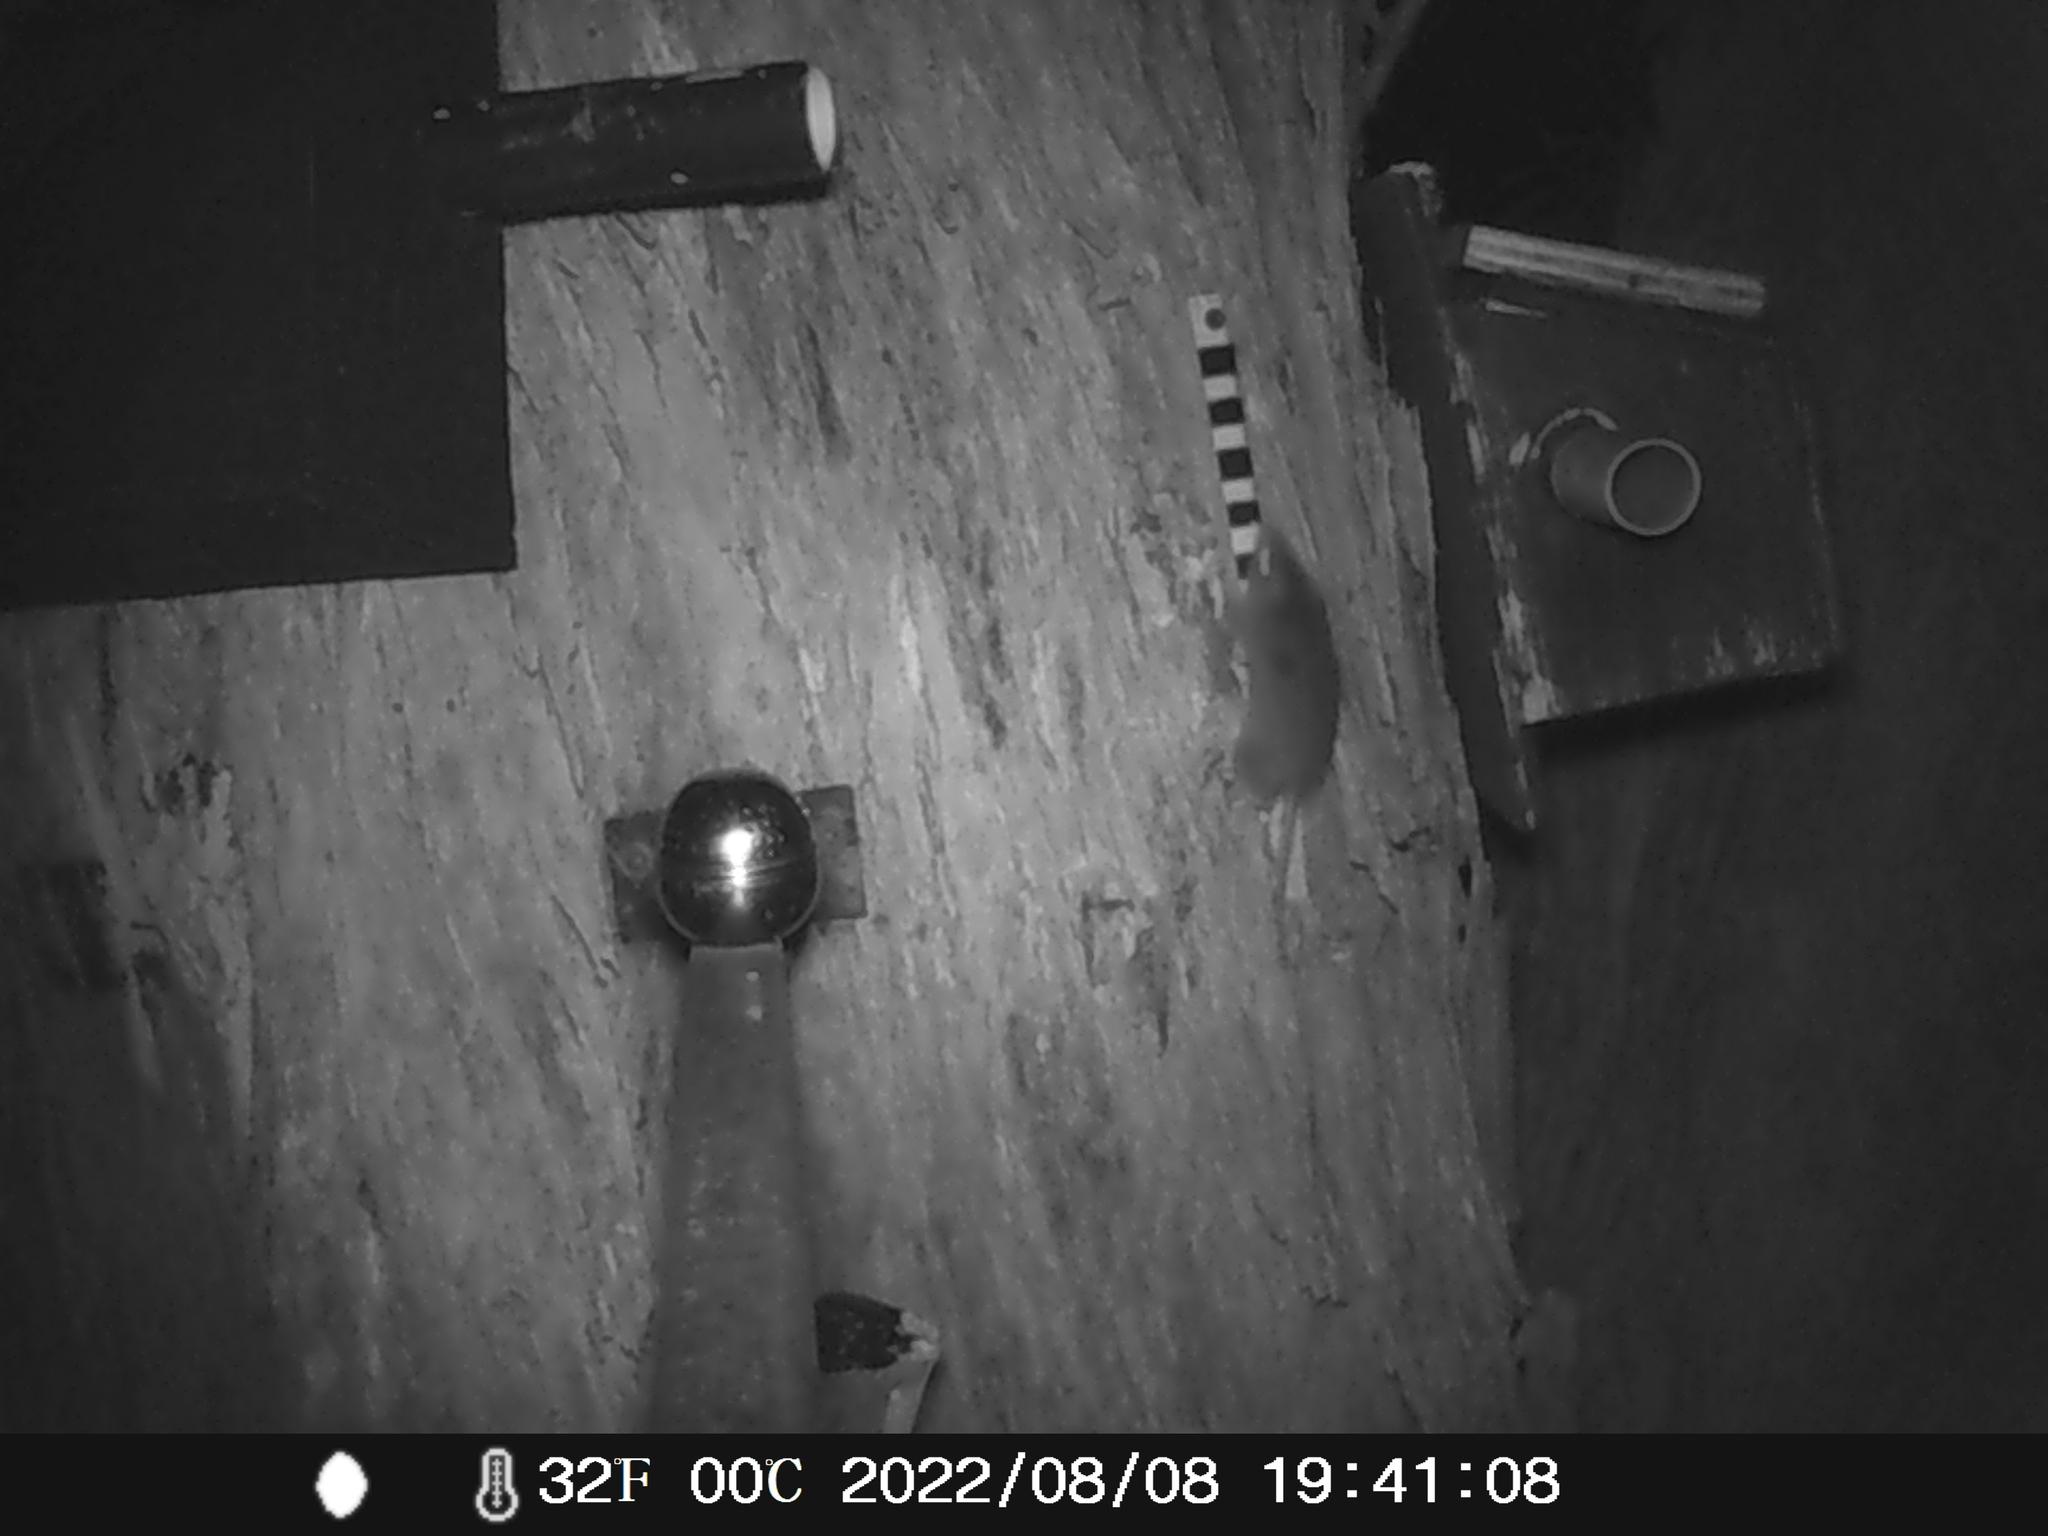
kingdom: Animalia
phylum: Chordata
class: Mammalia
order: Dasyuromorphia
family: Dasyuridae
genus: Antechinus
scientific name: Antechinus agilis
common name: Agile antechinus
